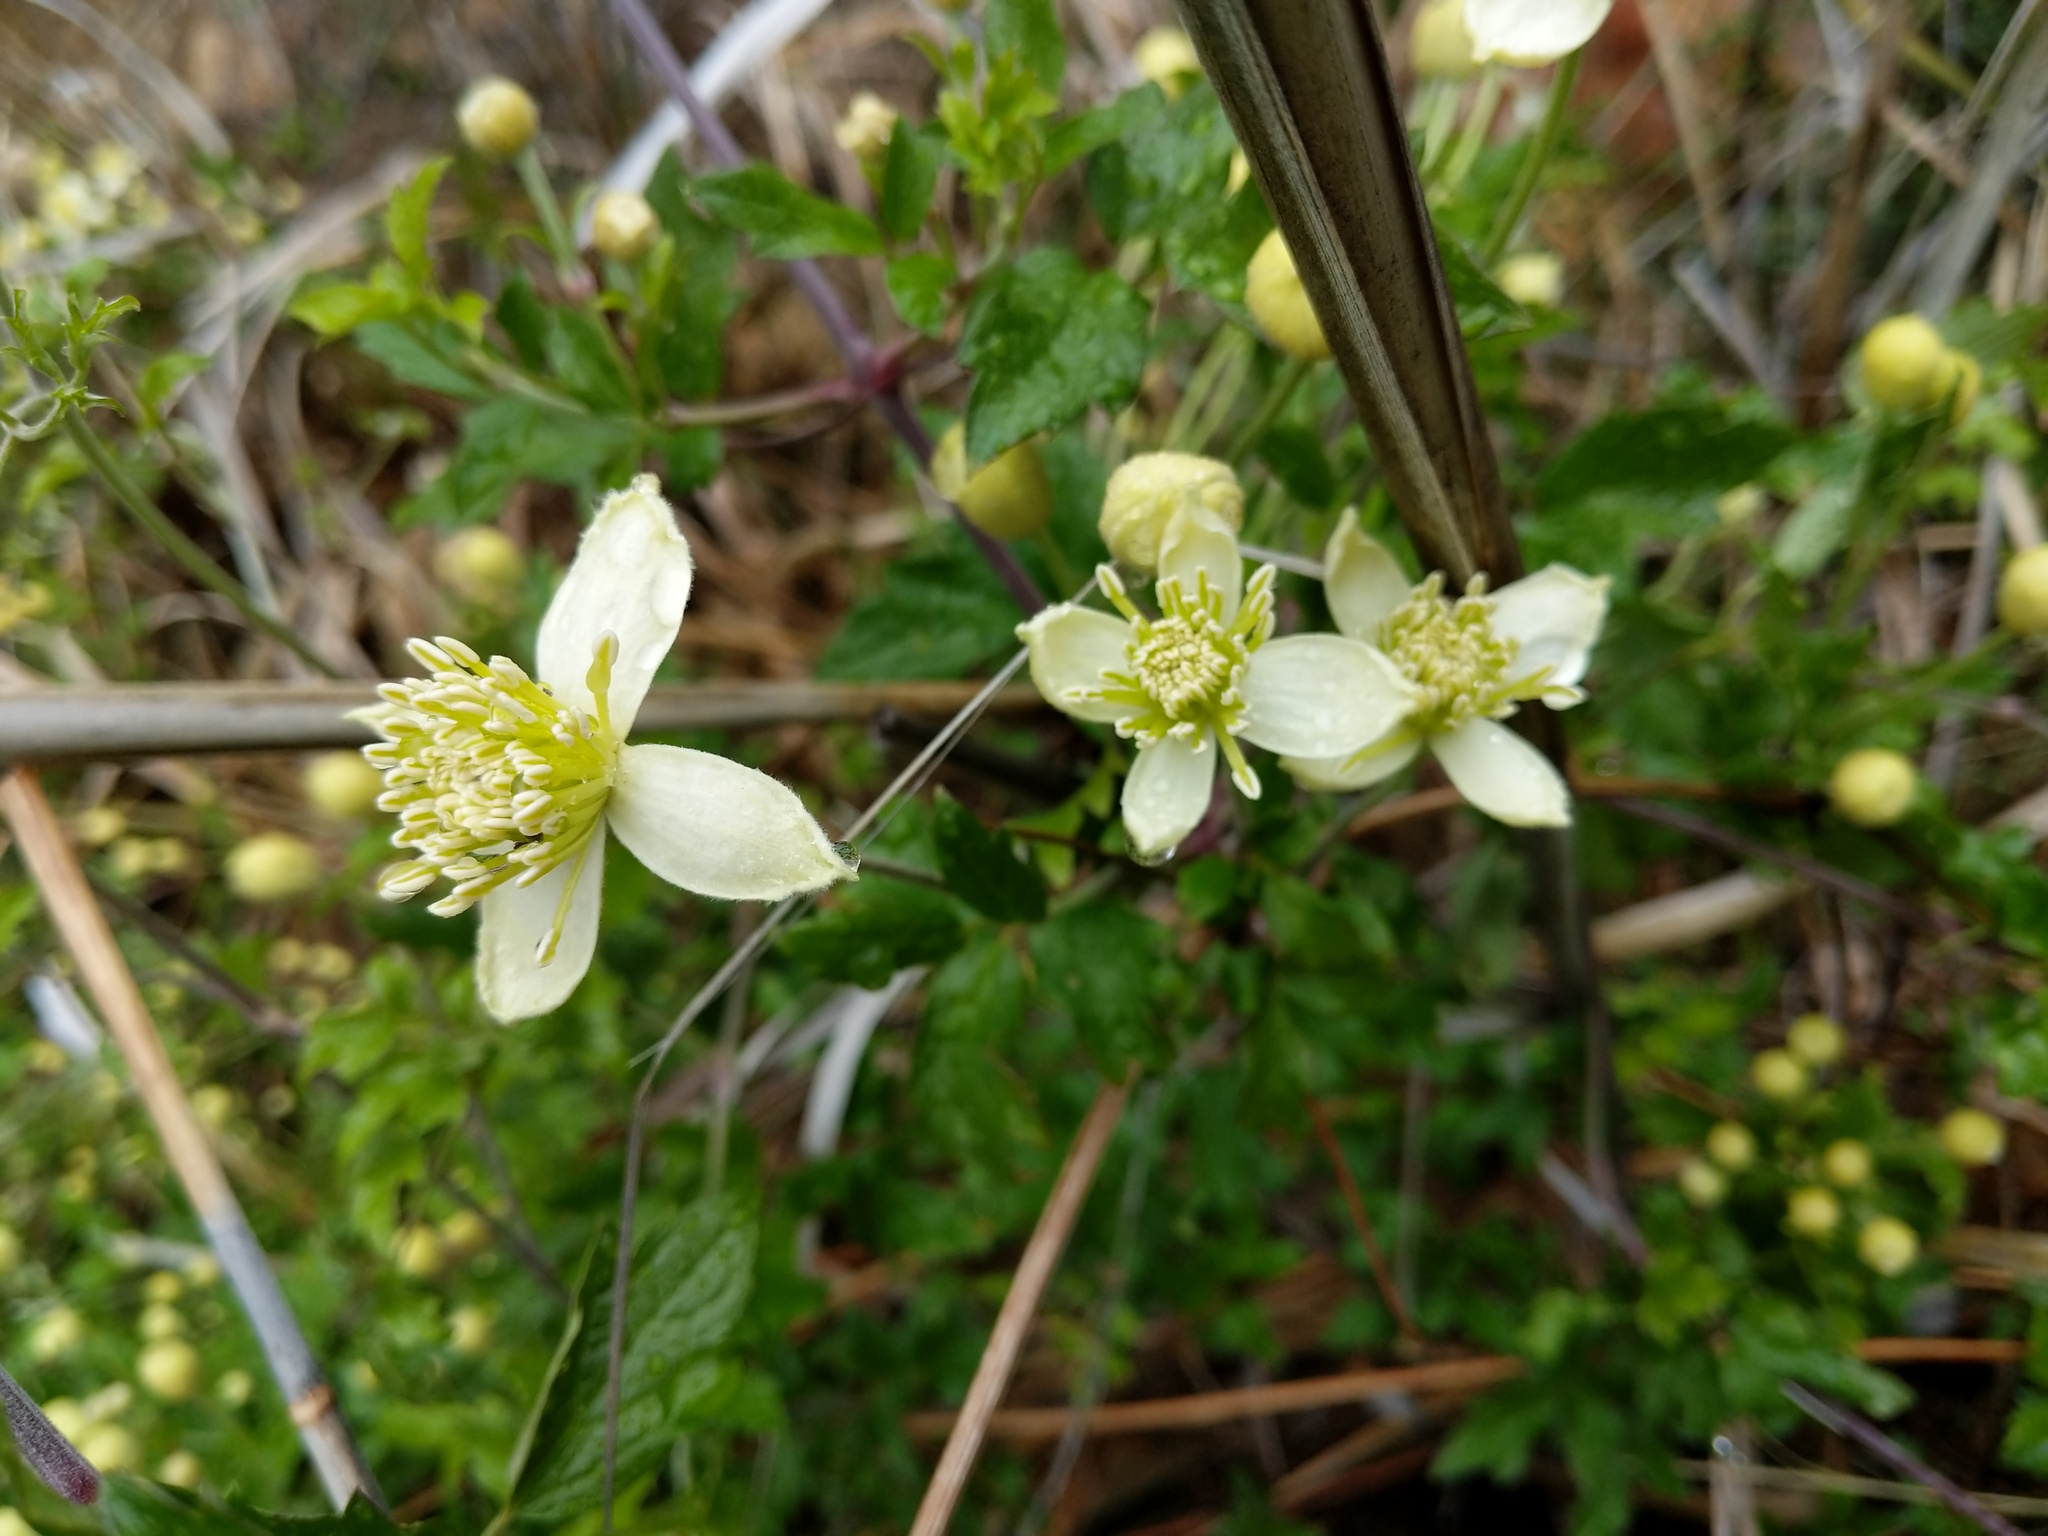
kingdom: Plantae
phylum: Tracheophyta
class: Magnoliopsida
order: Ranunculales
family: Ranunculaceae
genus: Clematis
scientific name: Clematis lasiantha
